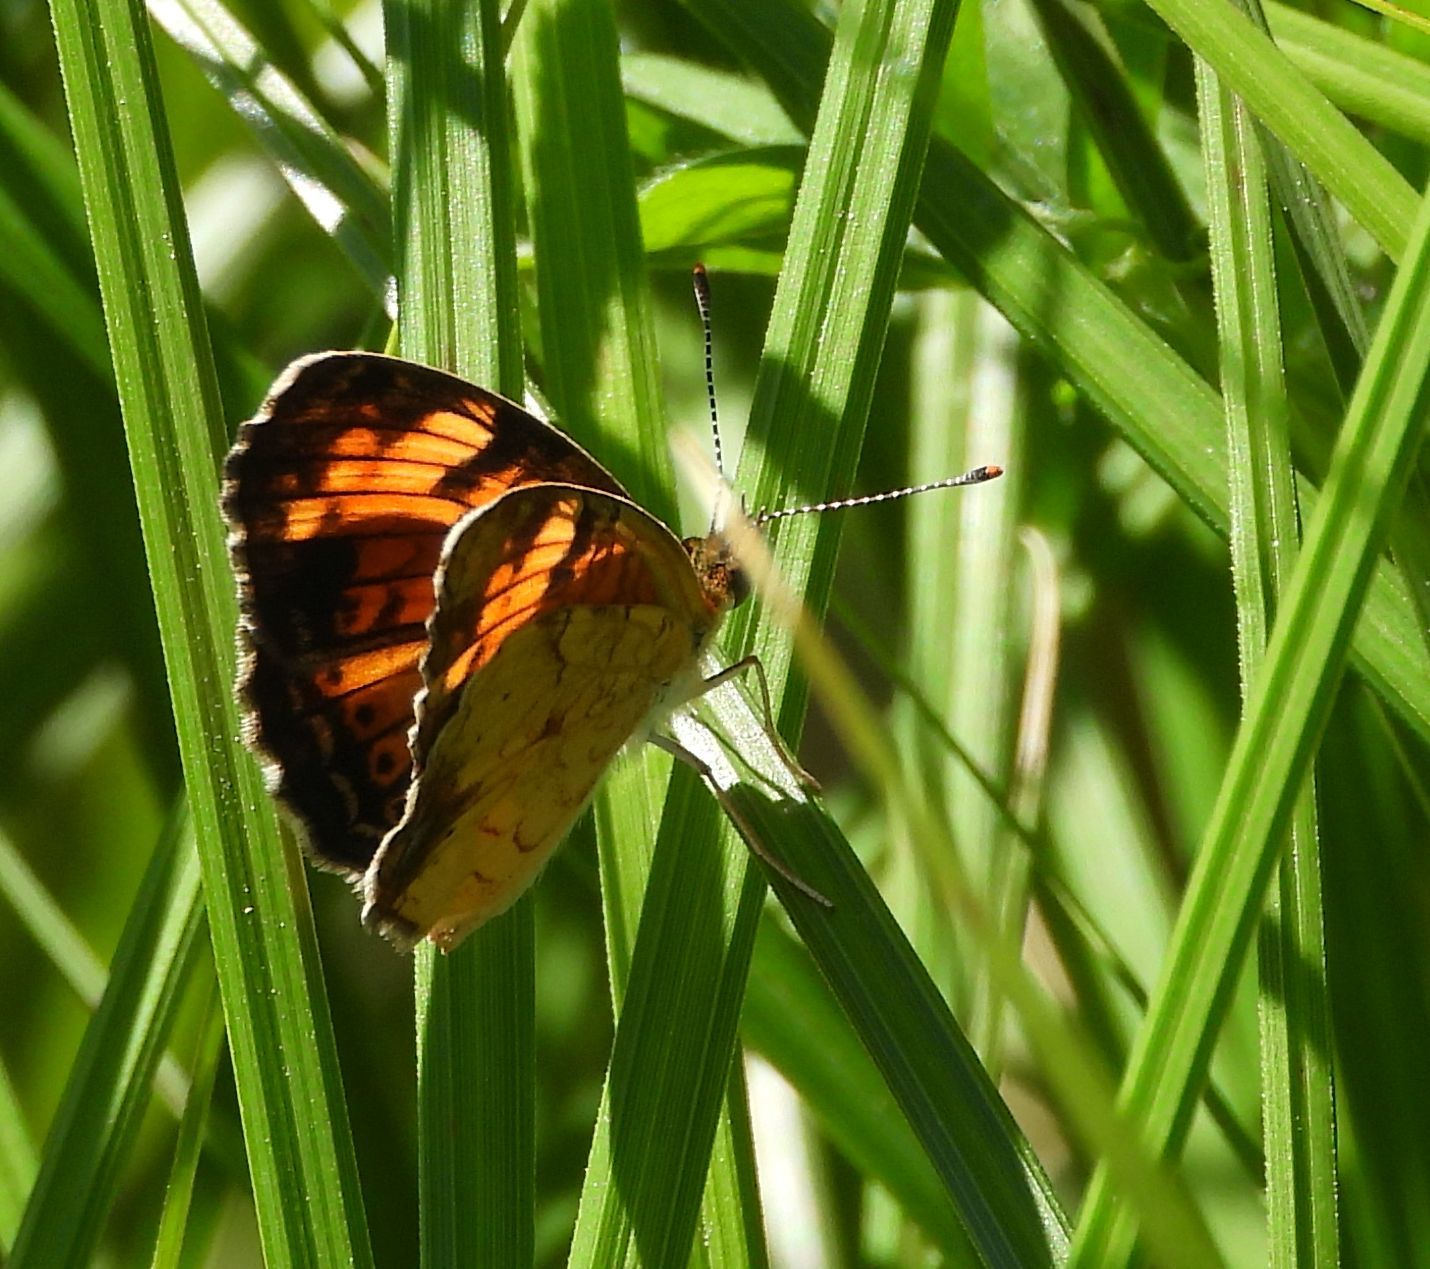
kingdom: Animalia
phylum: Arthropoda
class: Insecta
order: Lepidoptera
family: Nymphalidae
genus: Phyciodes
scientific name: Phyciodes tharos
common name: Pearl crescent
